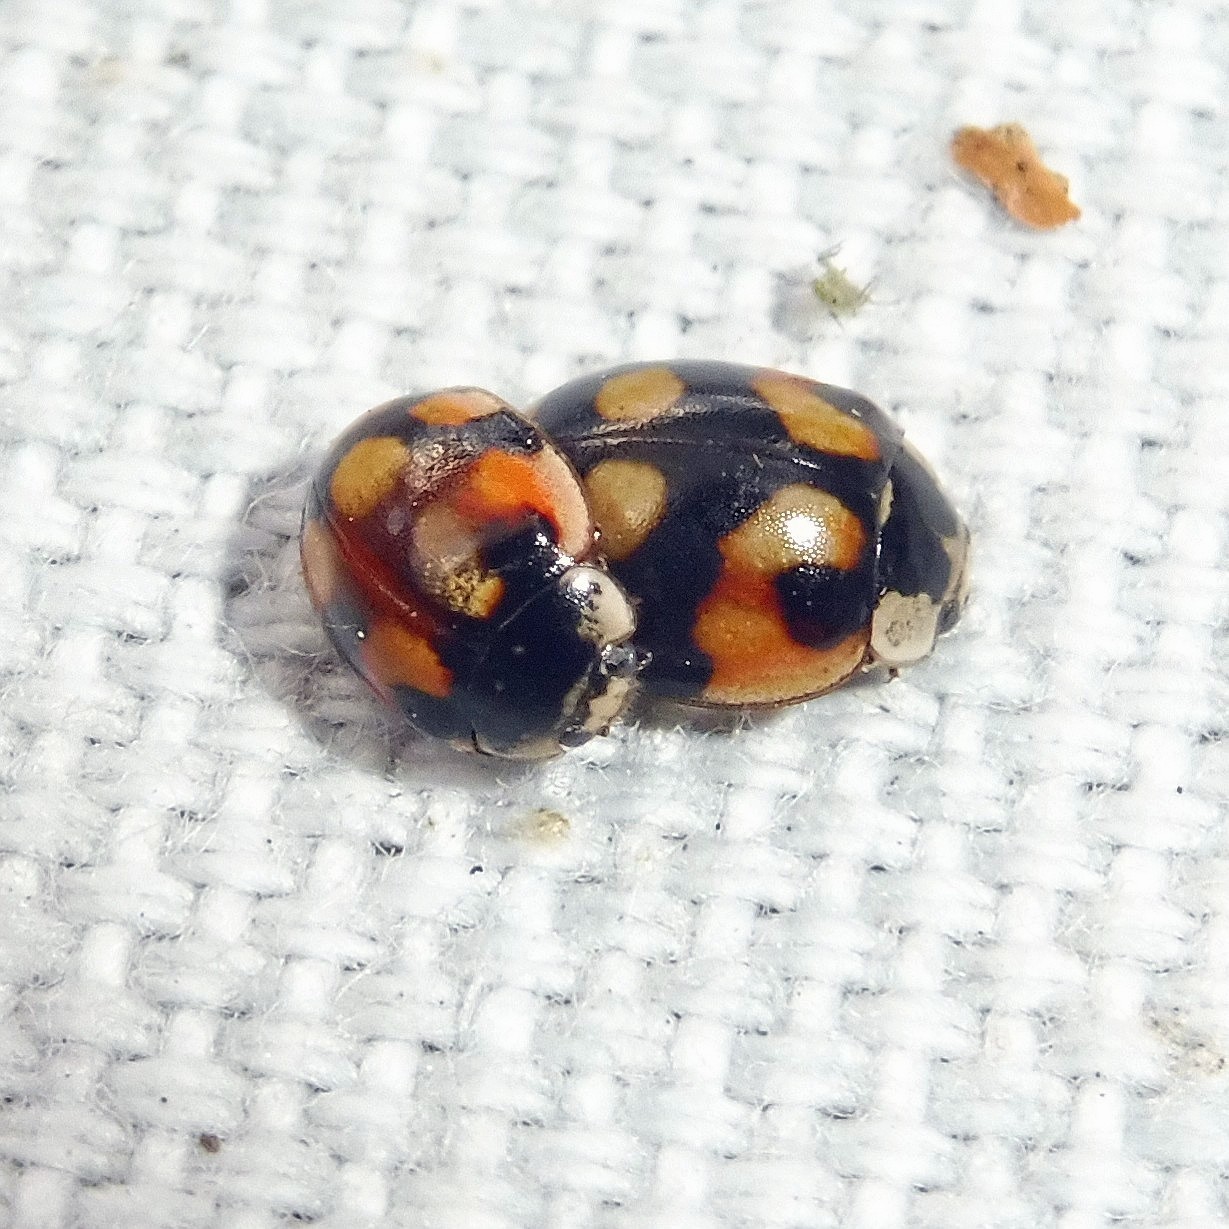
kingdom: Animalia
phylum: Arthropoda
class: Insecta
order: Coleoptera
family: Coccinellidae
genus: Adalia
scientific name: Adalia decempunctata
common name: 10-spot ladybird
